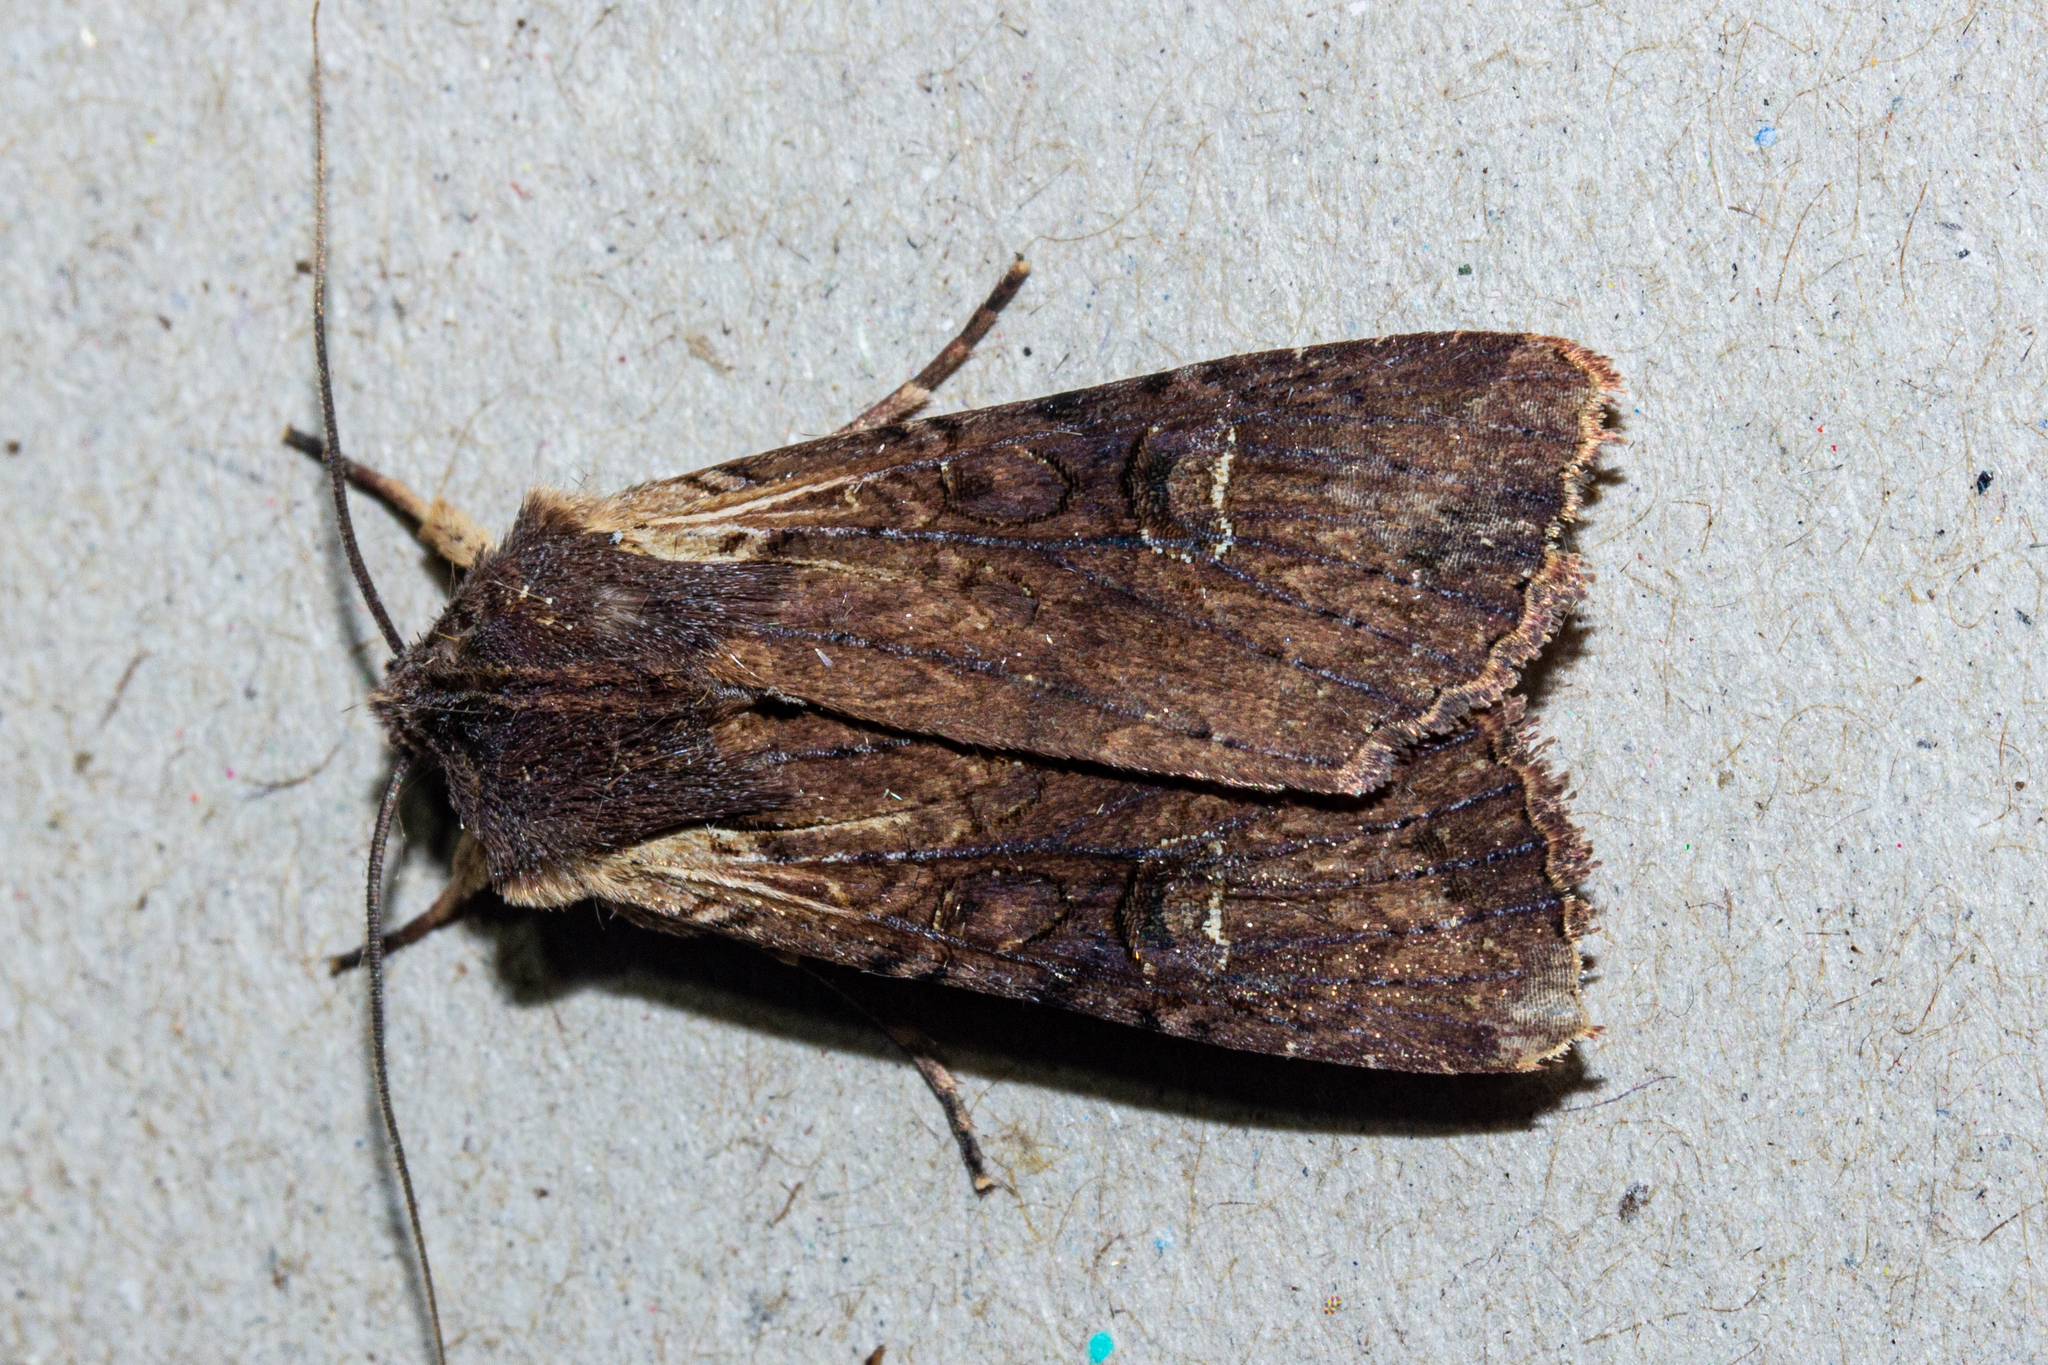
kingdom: Animalia
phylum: Arthropoda
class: Insecta
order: Lepidoptera
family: Noctuidae
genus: Ichneutica
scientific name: Ichneutica omoplaca
